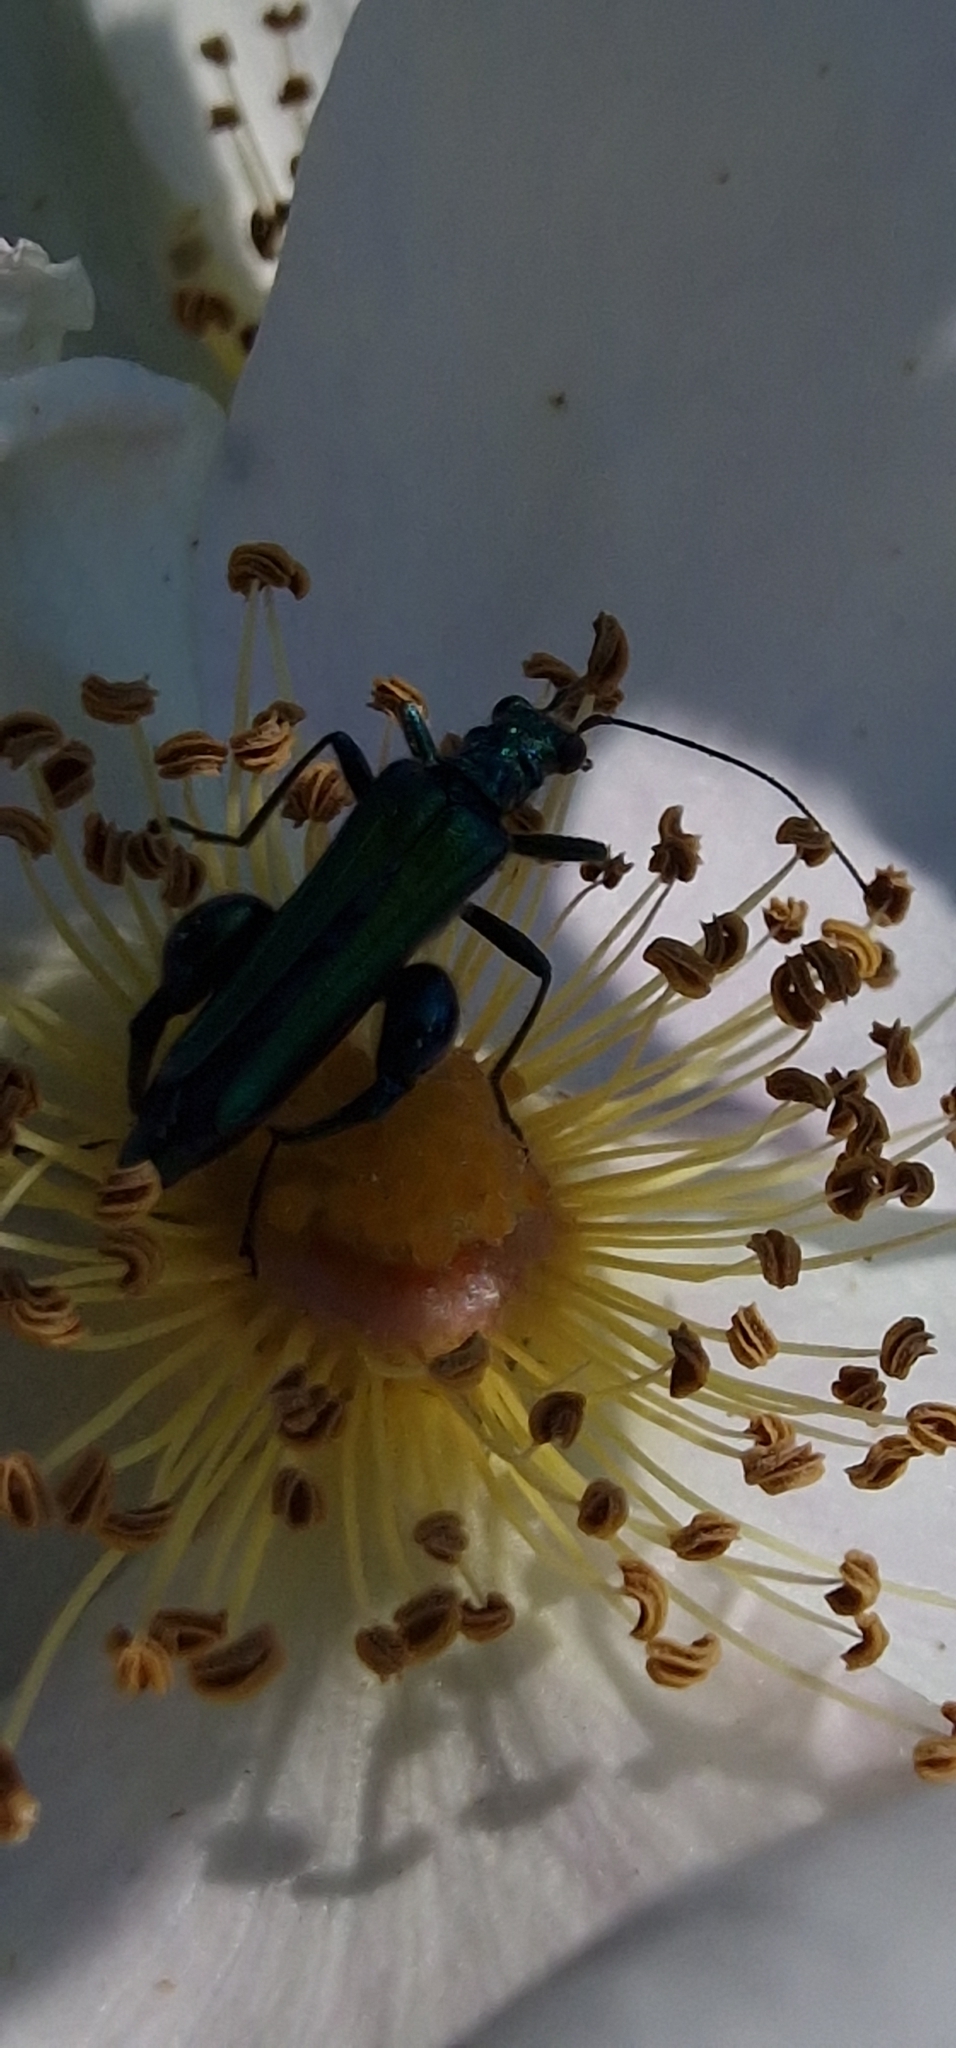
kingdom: Animalia
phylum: Arthropoda
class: Insecta
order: Coleoptera
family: Oedemeridae
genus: Oedemera
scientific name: Oedemera nobilis
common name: Swollen-thighed beetle
